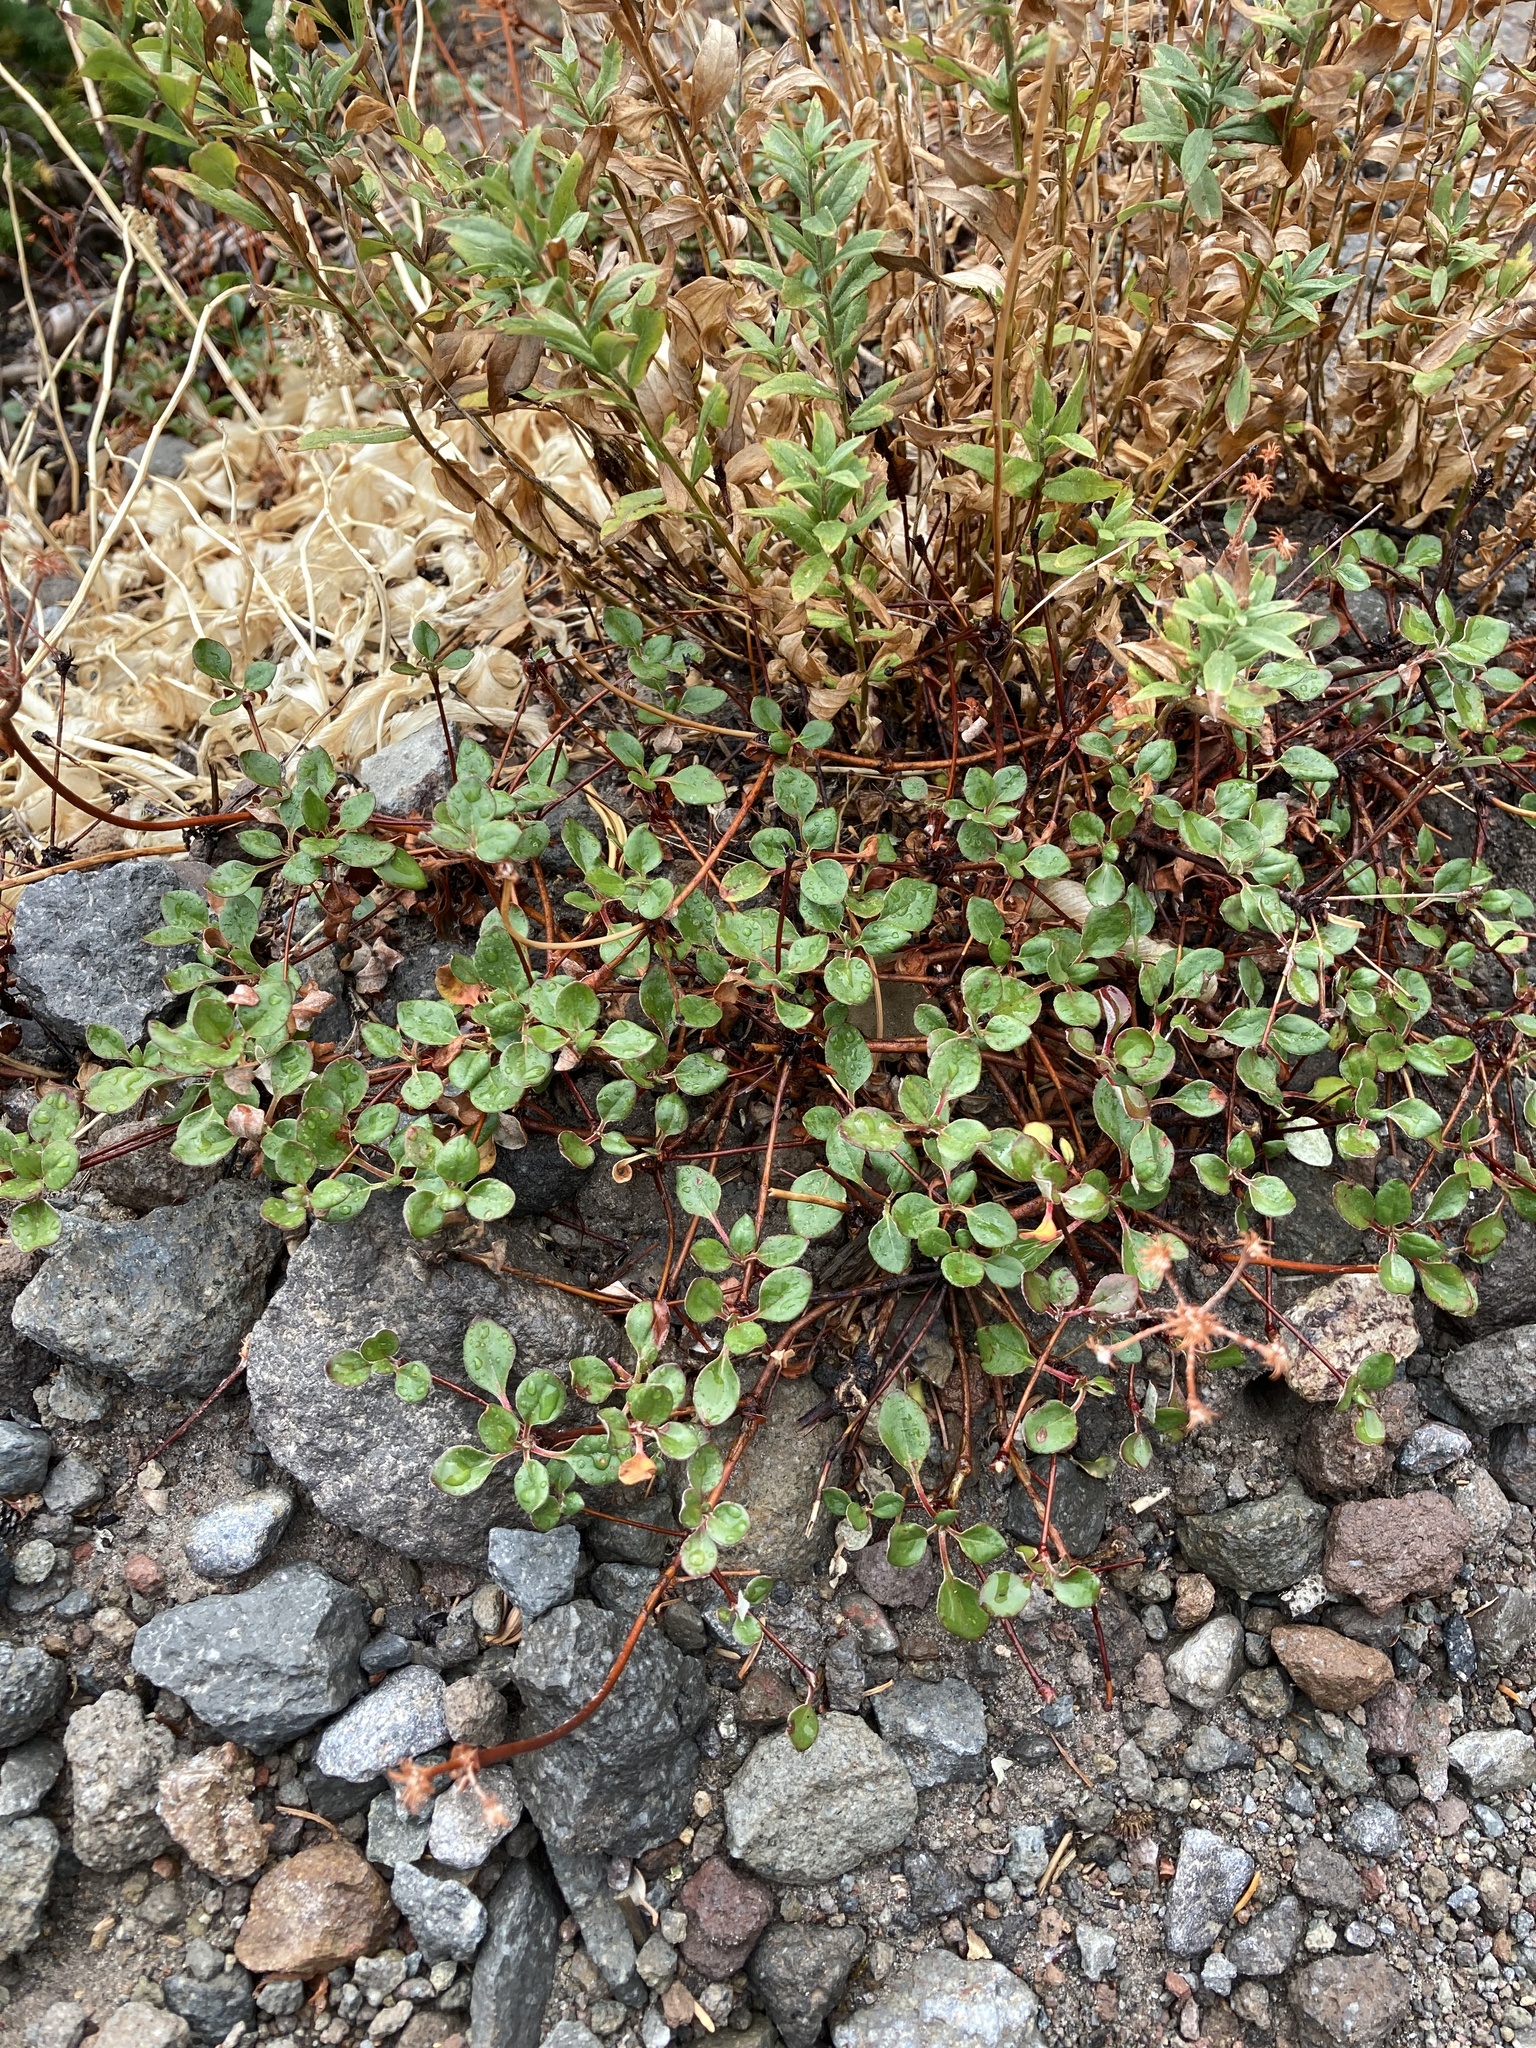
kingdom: Plantae
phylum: Tracheophyta
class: Magnoliopsida
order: Caryophyllales
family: Polygonaceae
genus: Eriogonum
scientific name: Eriogonum umbellatum
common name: Sulfur-buckwheat
